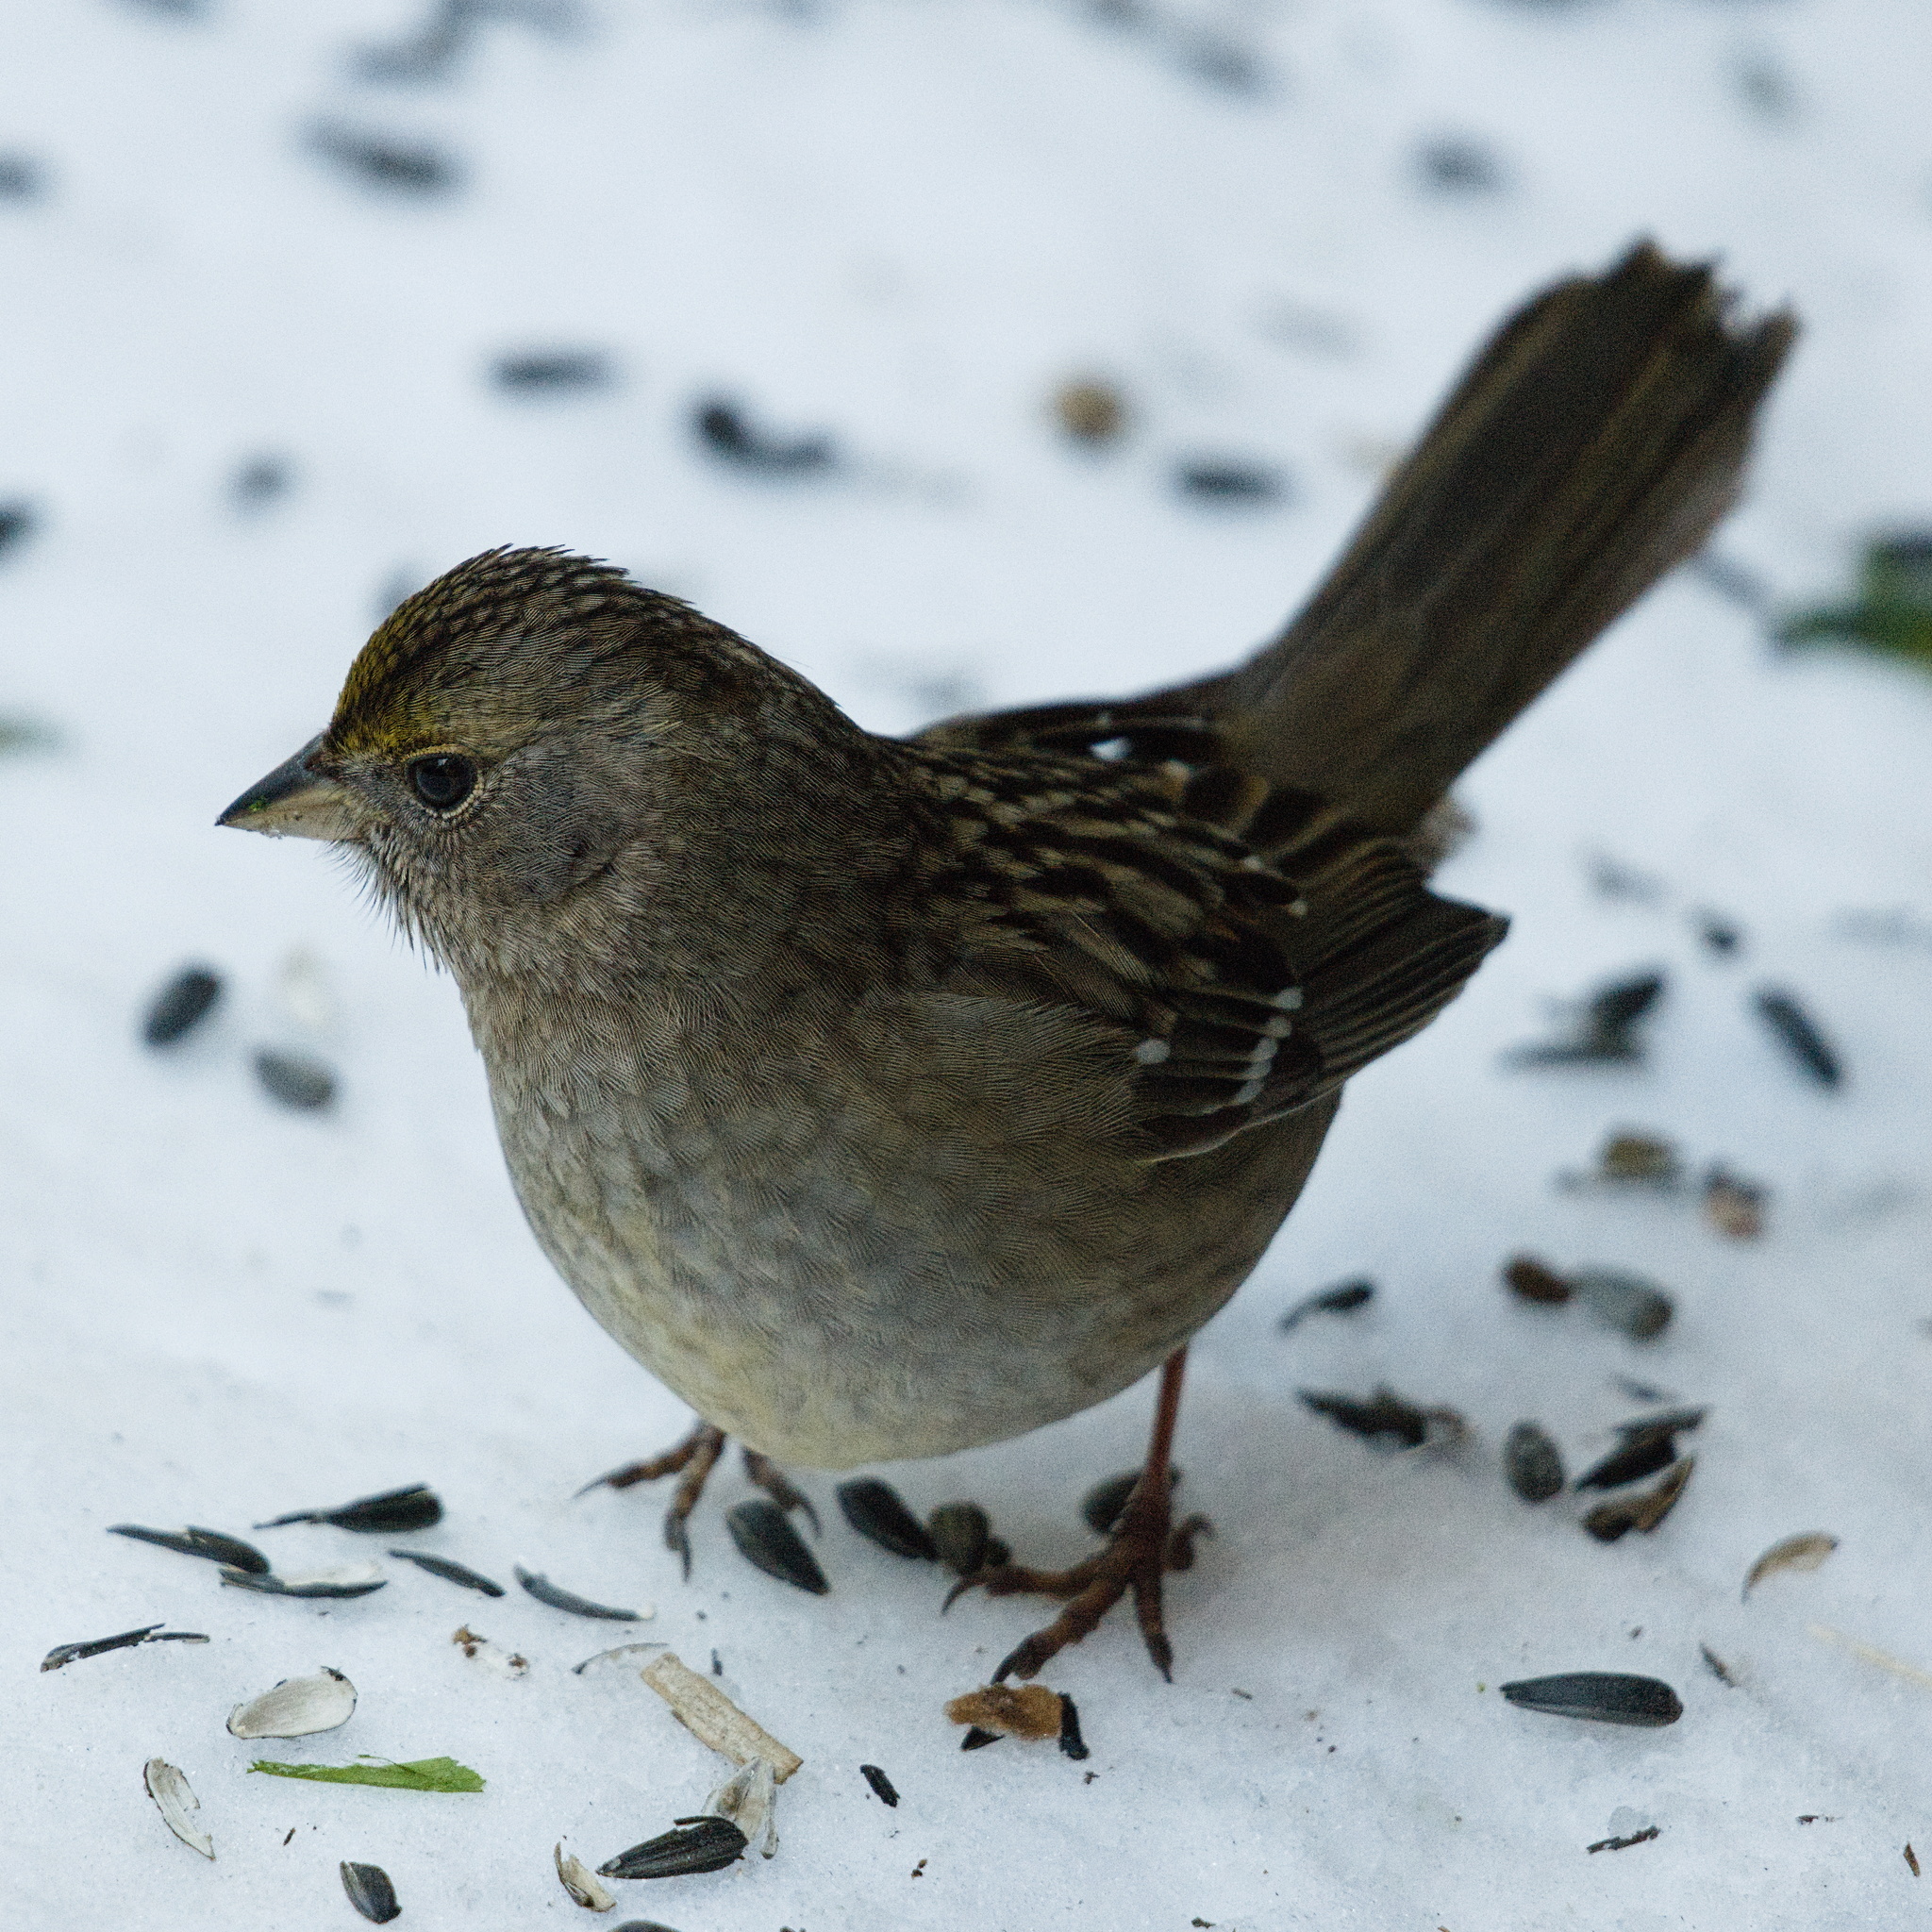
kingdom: Animalia
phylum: Chordata
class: Aves
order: Passeriformes
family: Passerellidae
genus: Zonotrichia
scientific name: Zonotrichia atricapilla
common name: Golden-crowned sparrow
